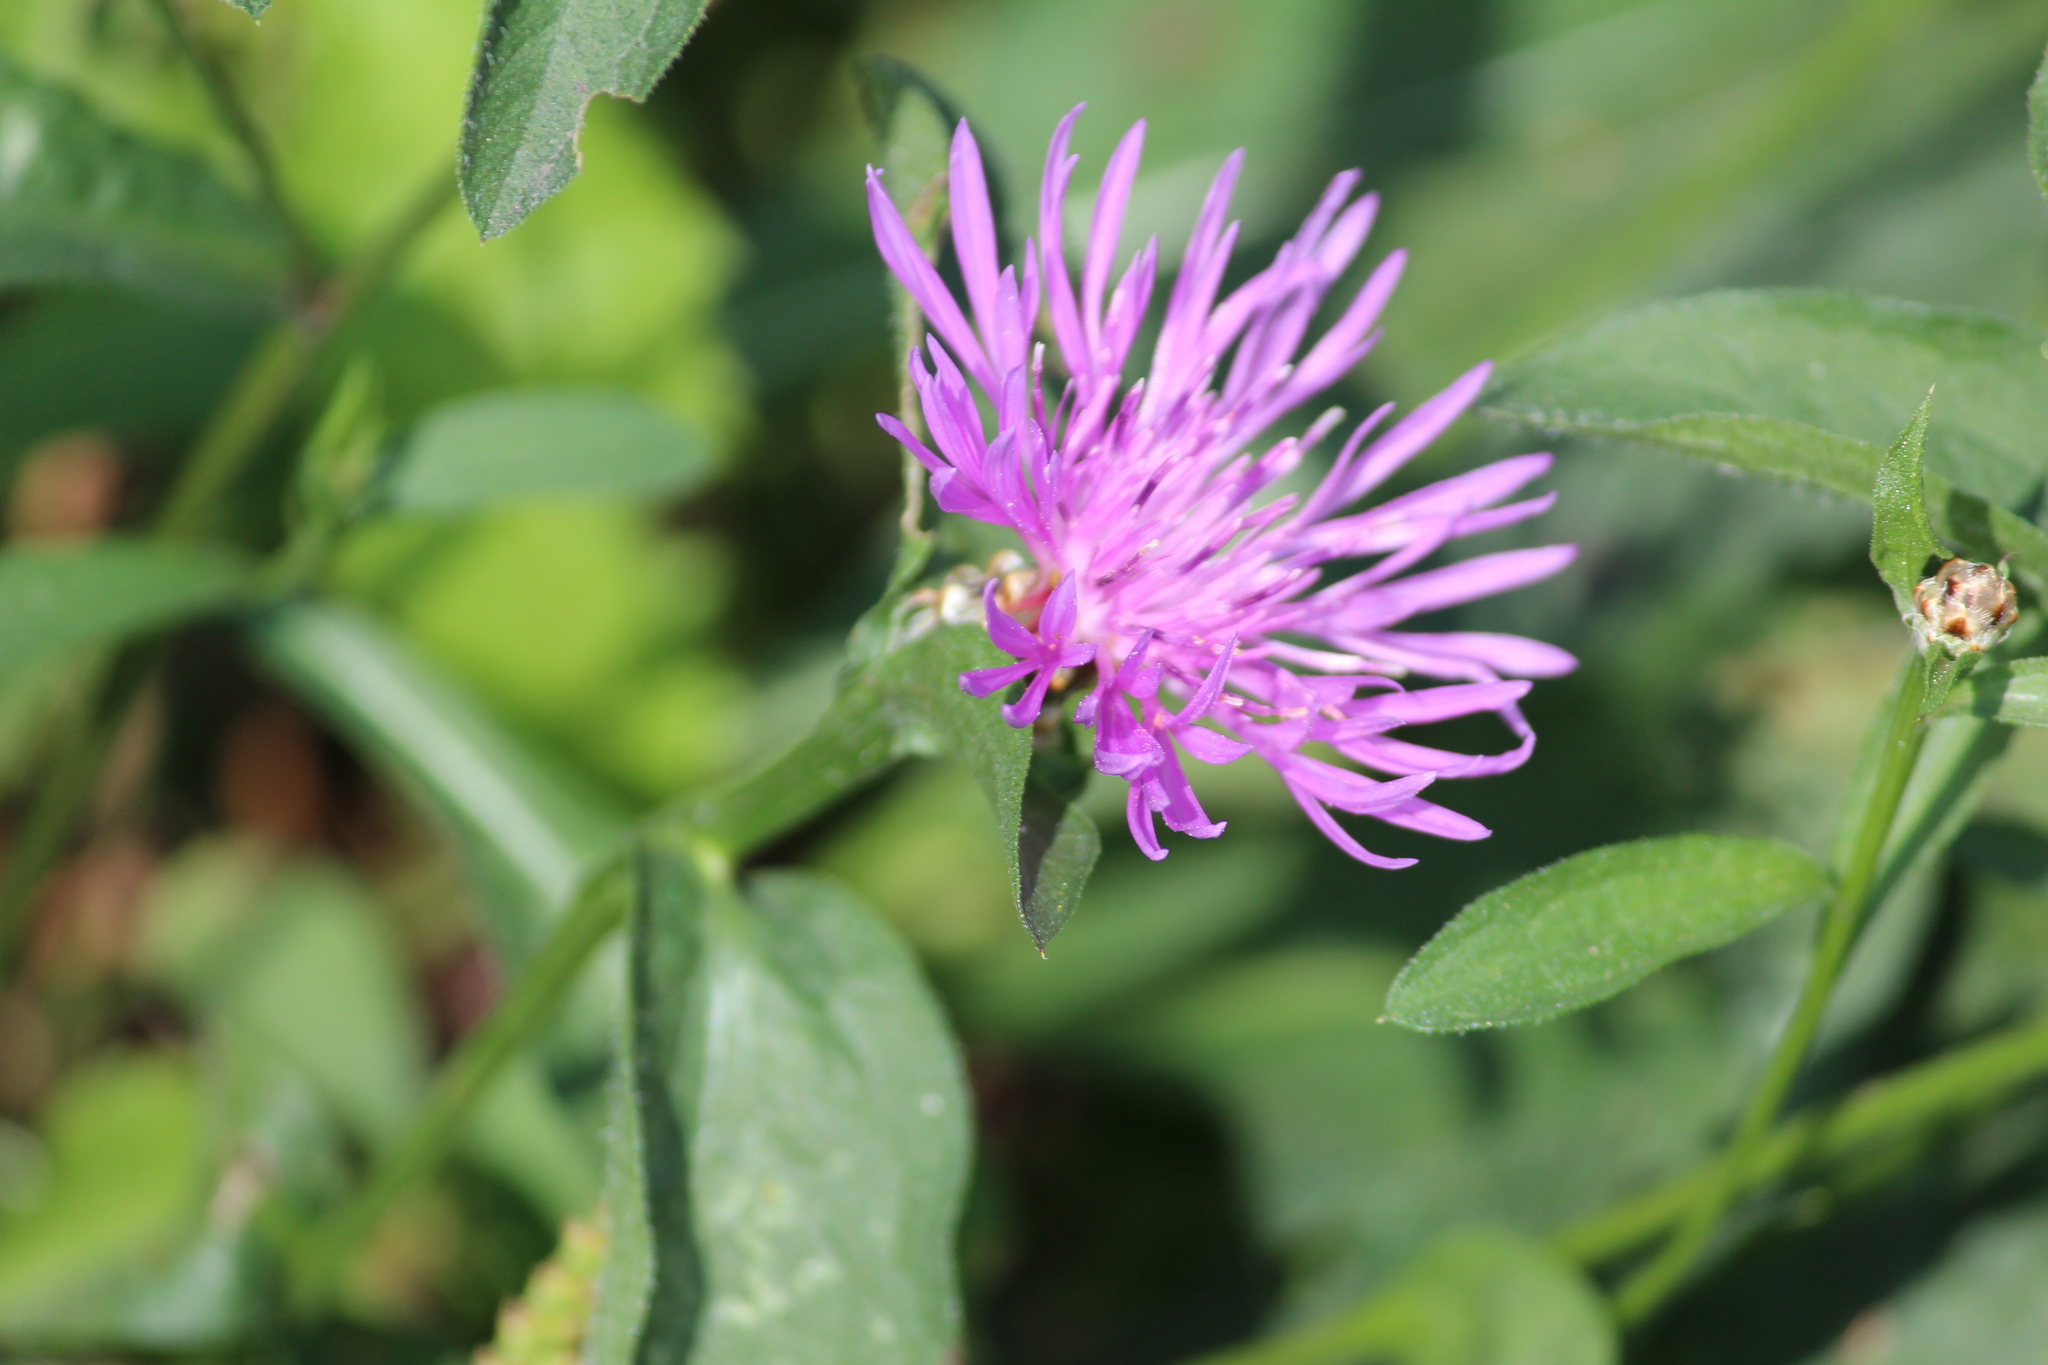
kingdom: Plantae
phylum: Tracheophyta
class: Magnoliopsida
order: Asterales
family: Asteraceae
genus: Centaurea
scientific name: Centaurea jacea
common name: Brown knapweed
